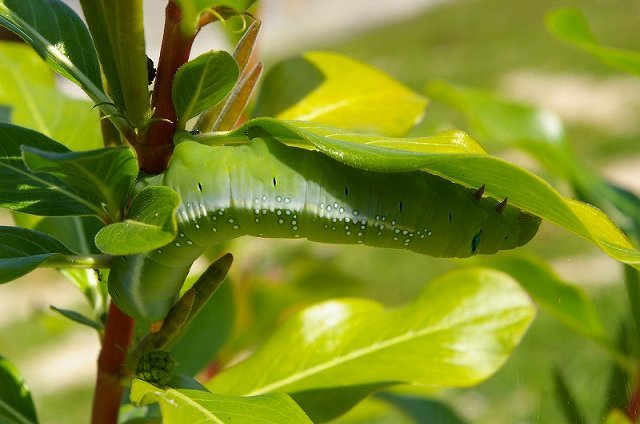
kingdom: Animalia
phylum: Arthropoda
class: Insecta
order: Lepidoptera
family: Sphingidae
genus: Daphnis
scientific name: Daphnis nerii
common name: Oleander hawk-moth
